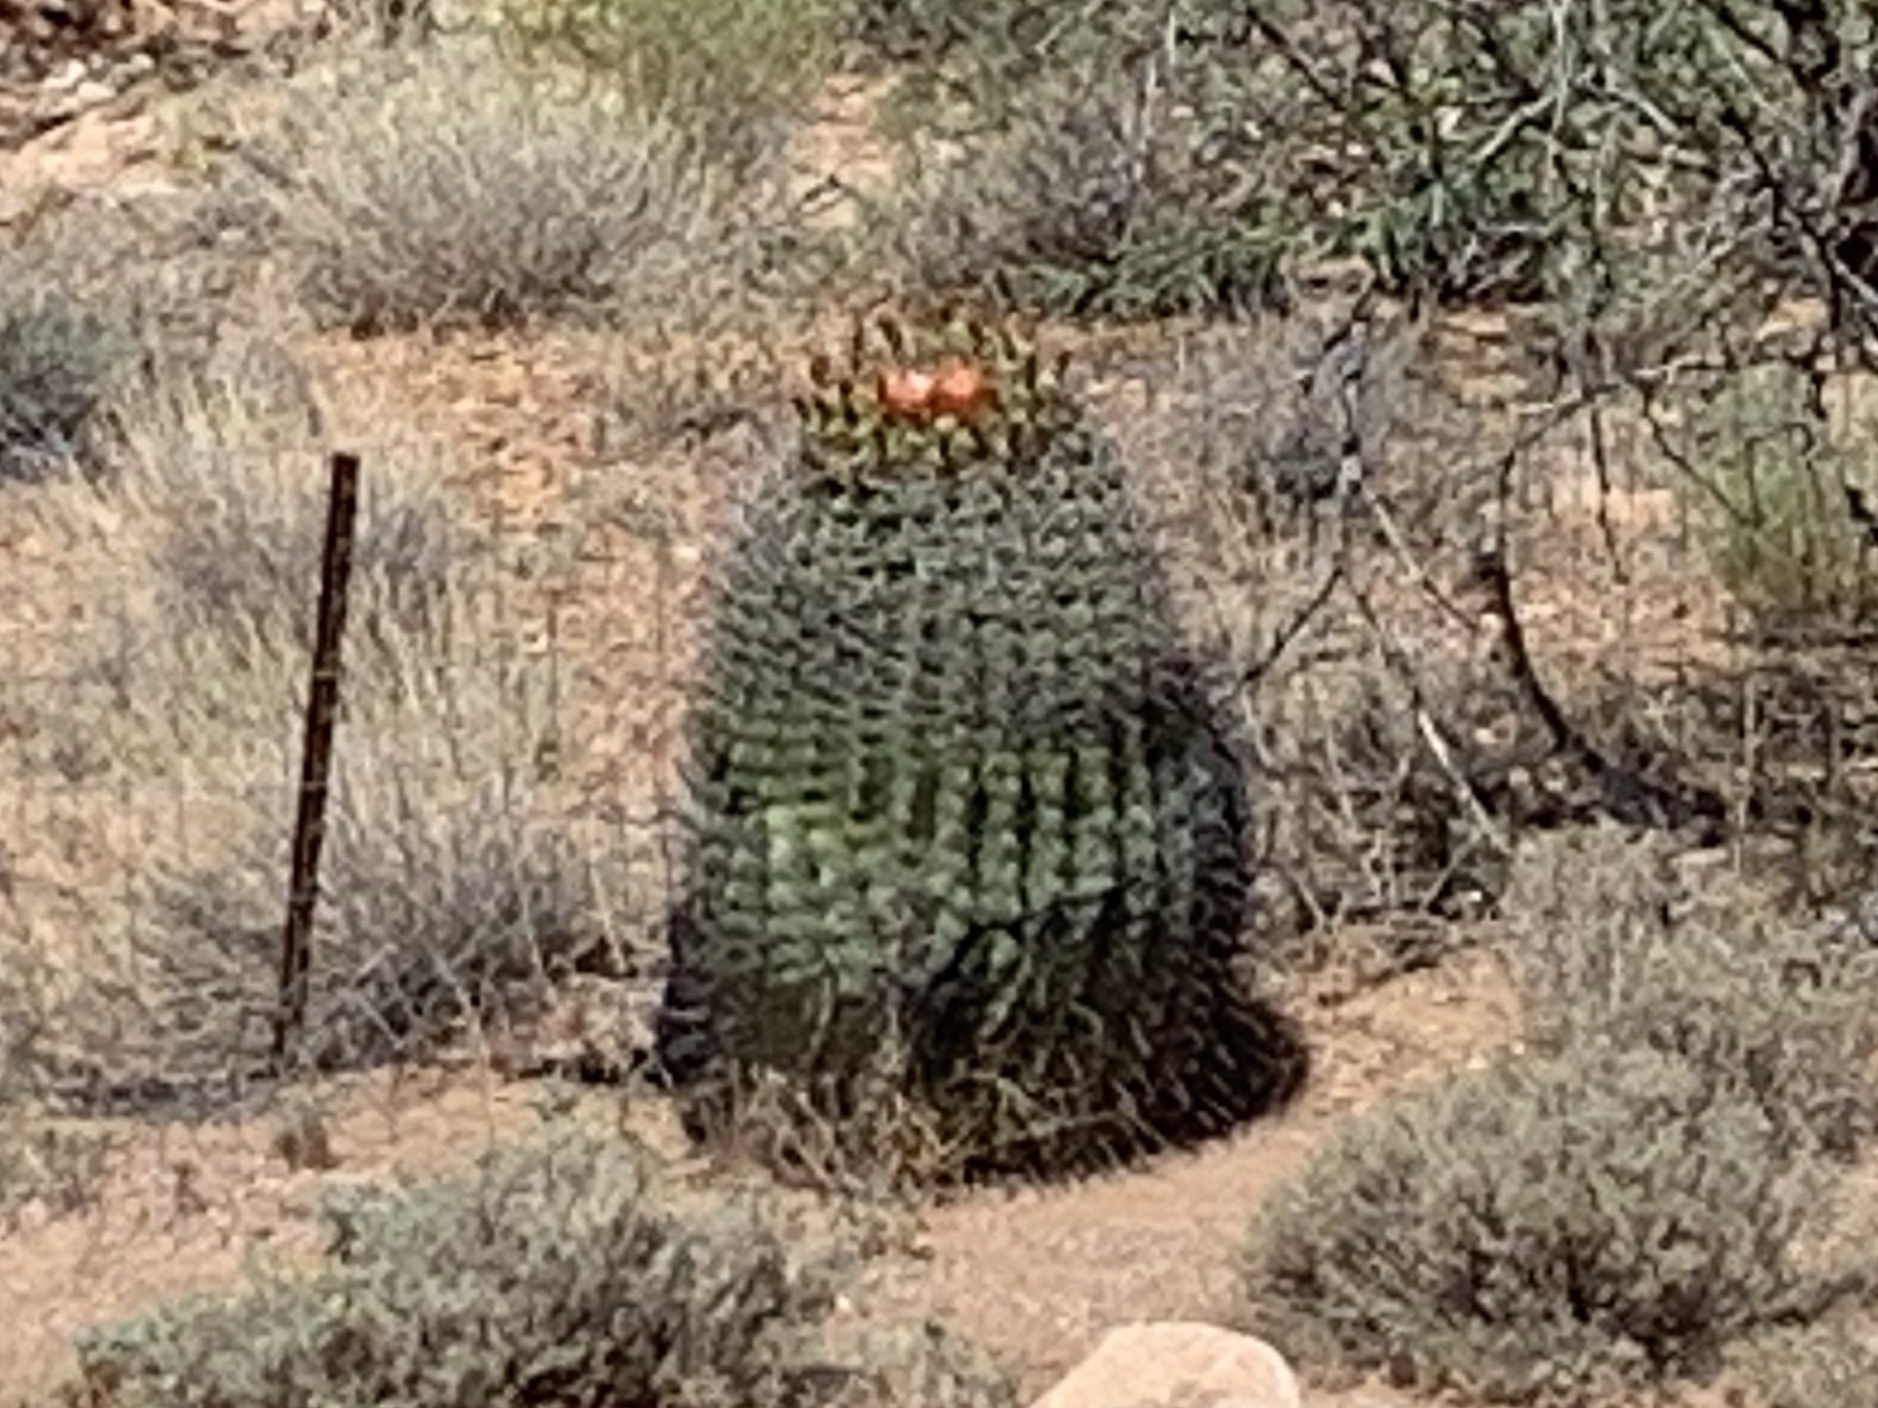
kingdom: Plantae
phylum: Tracheophyta
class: Magnoliopsida
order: Caryophyllales
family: Cactaceae
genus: Ferocactus
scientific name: Ferocactus wislizeni
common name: Candy barrel cactus
